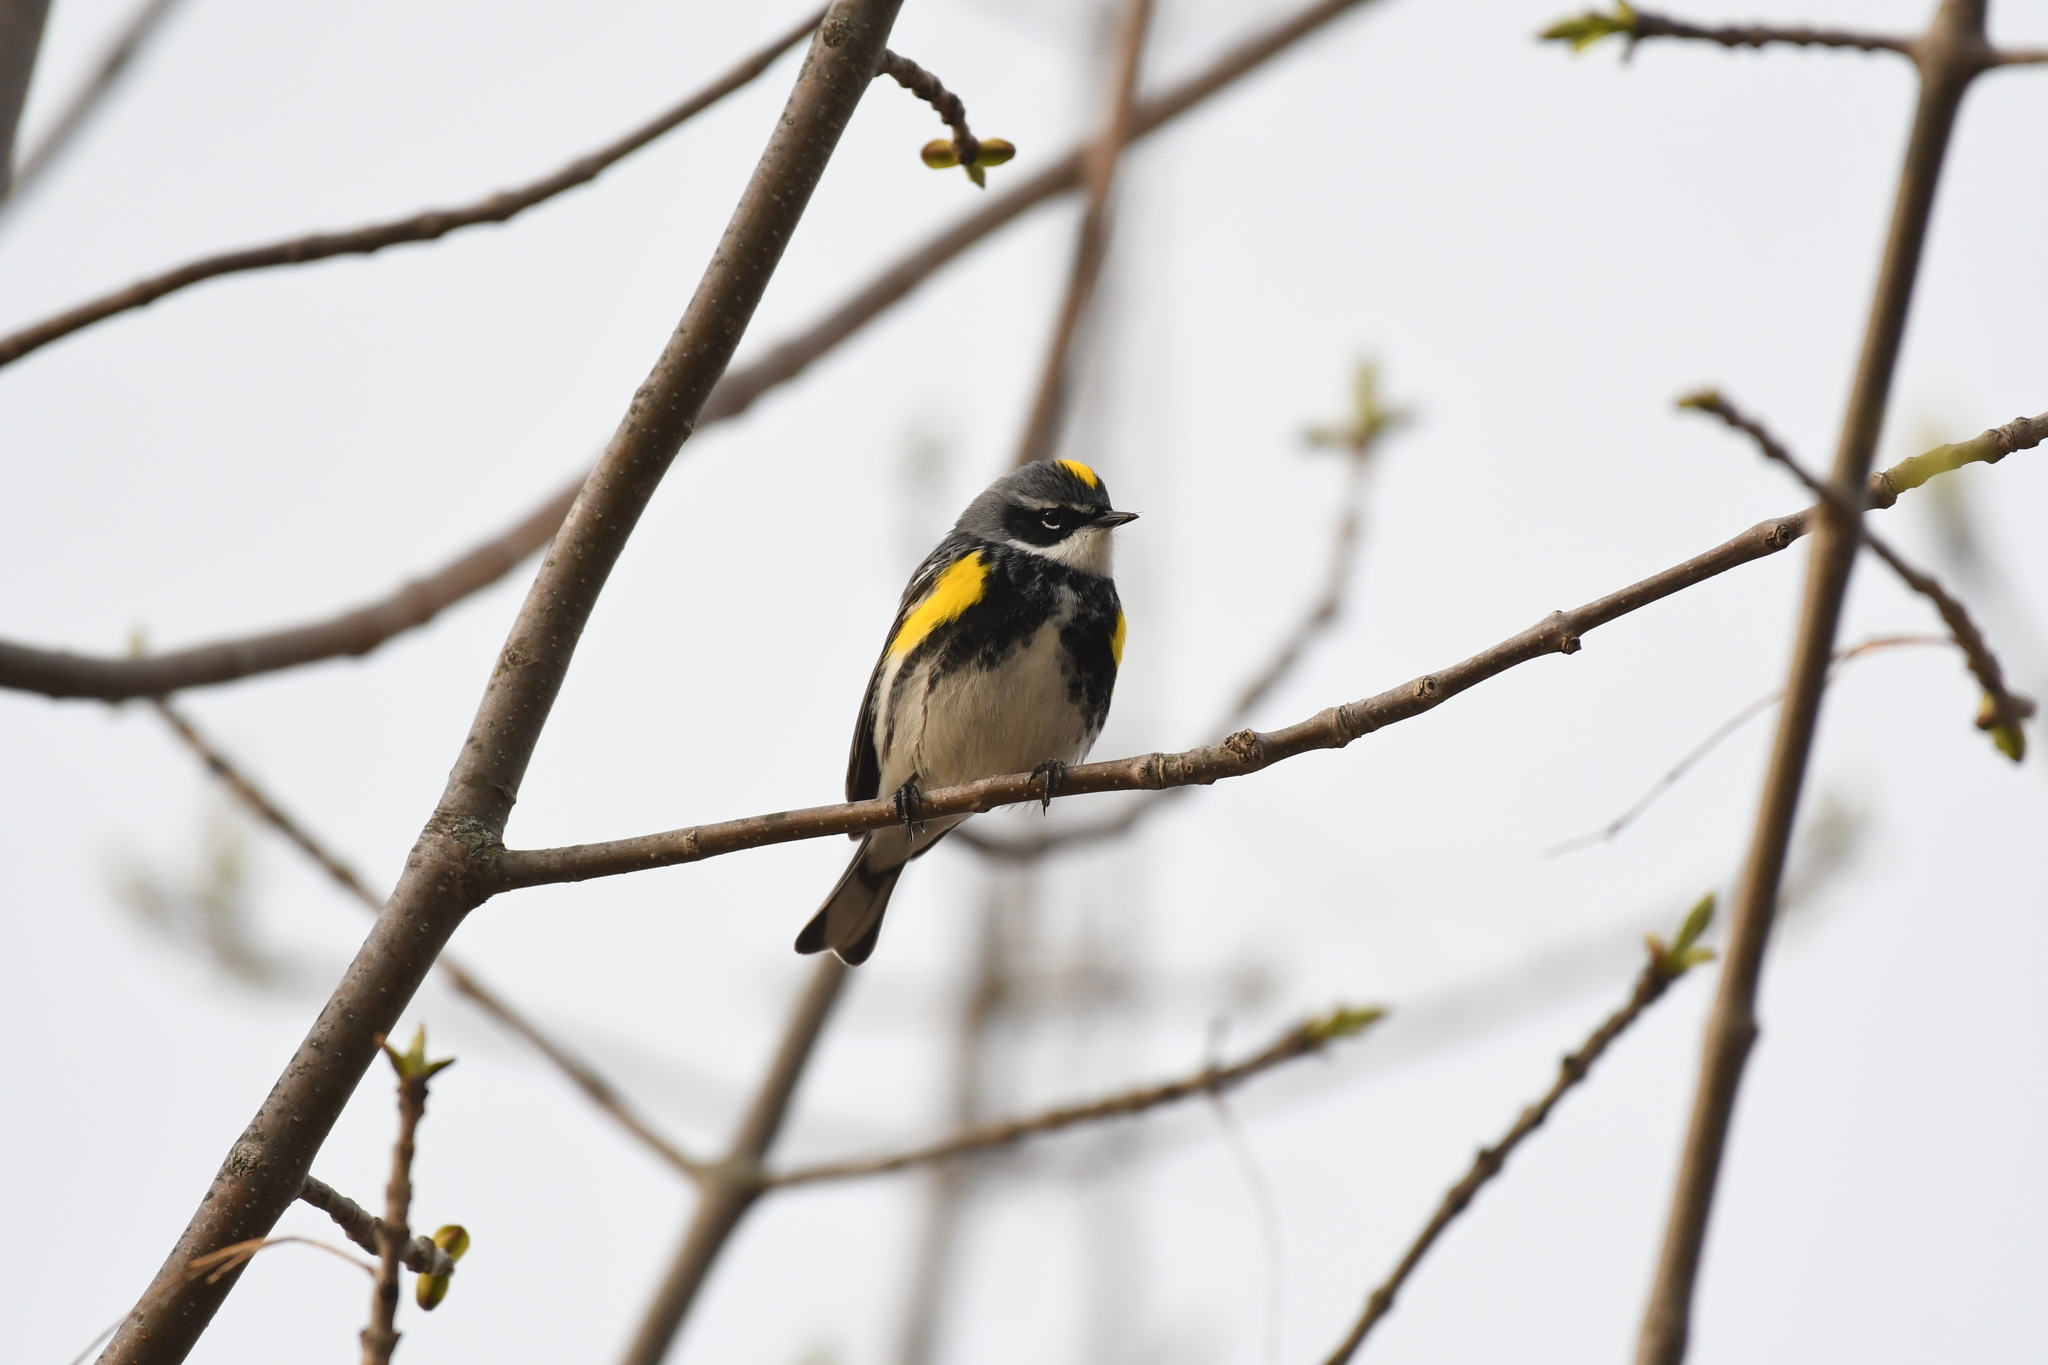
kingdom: Animalia
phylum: Chordata
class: Aves
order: Passeriformes
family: Parulidae
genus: Setophaga
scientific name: Setophaga coronata
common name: Myrtle warbler
